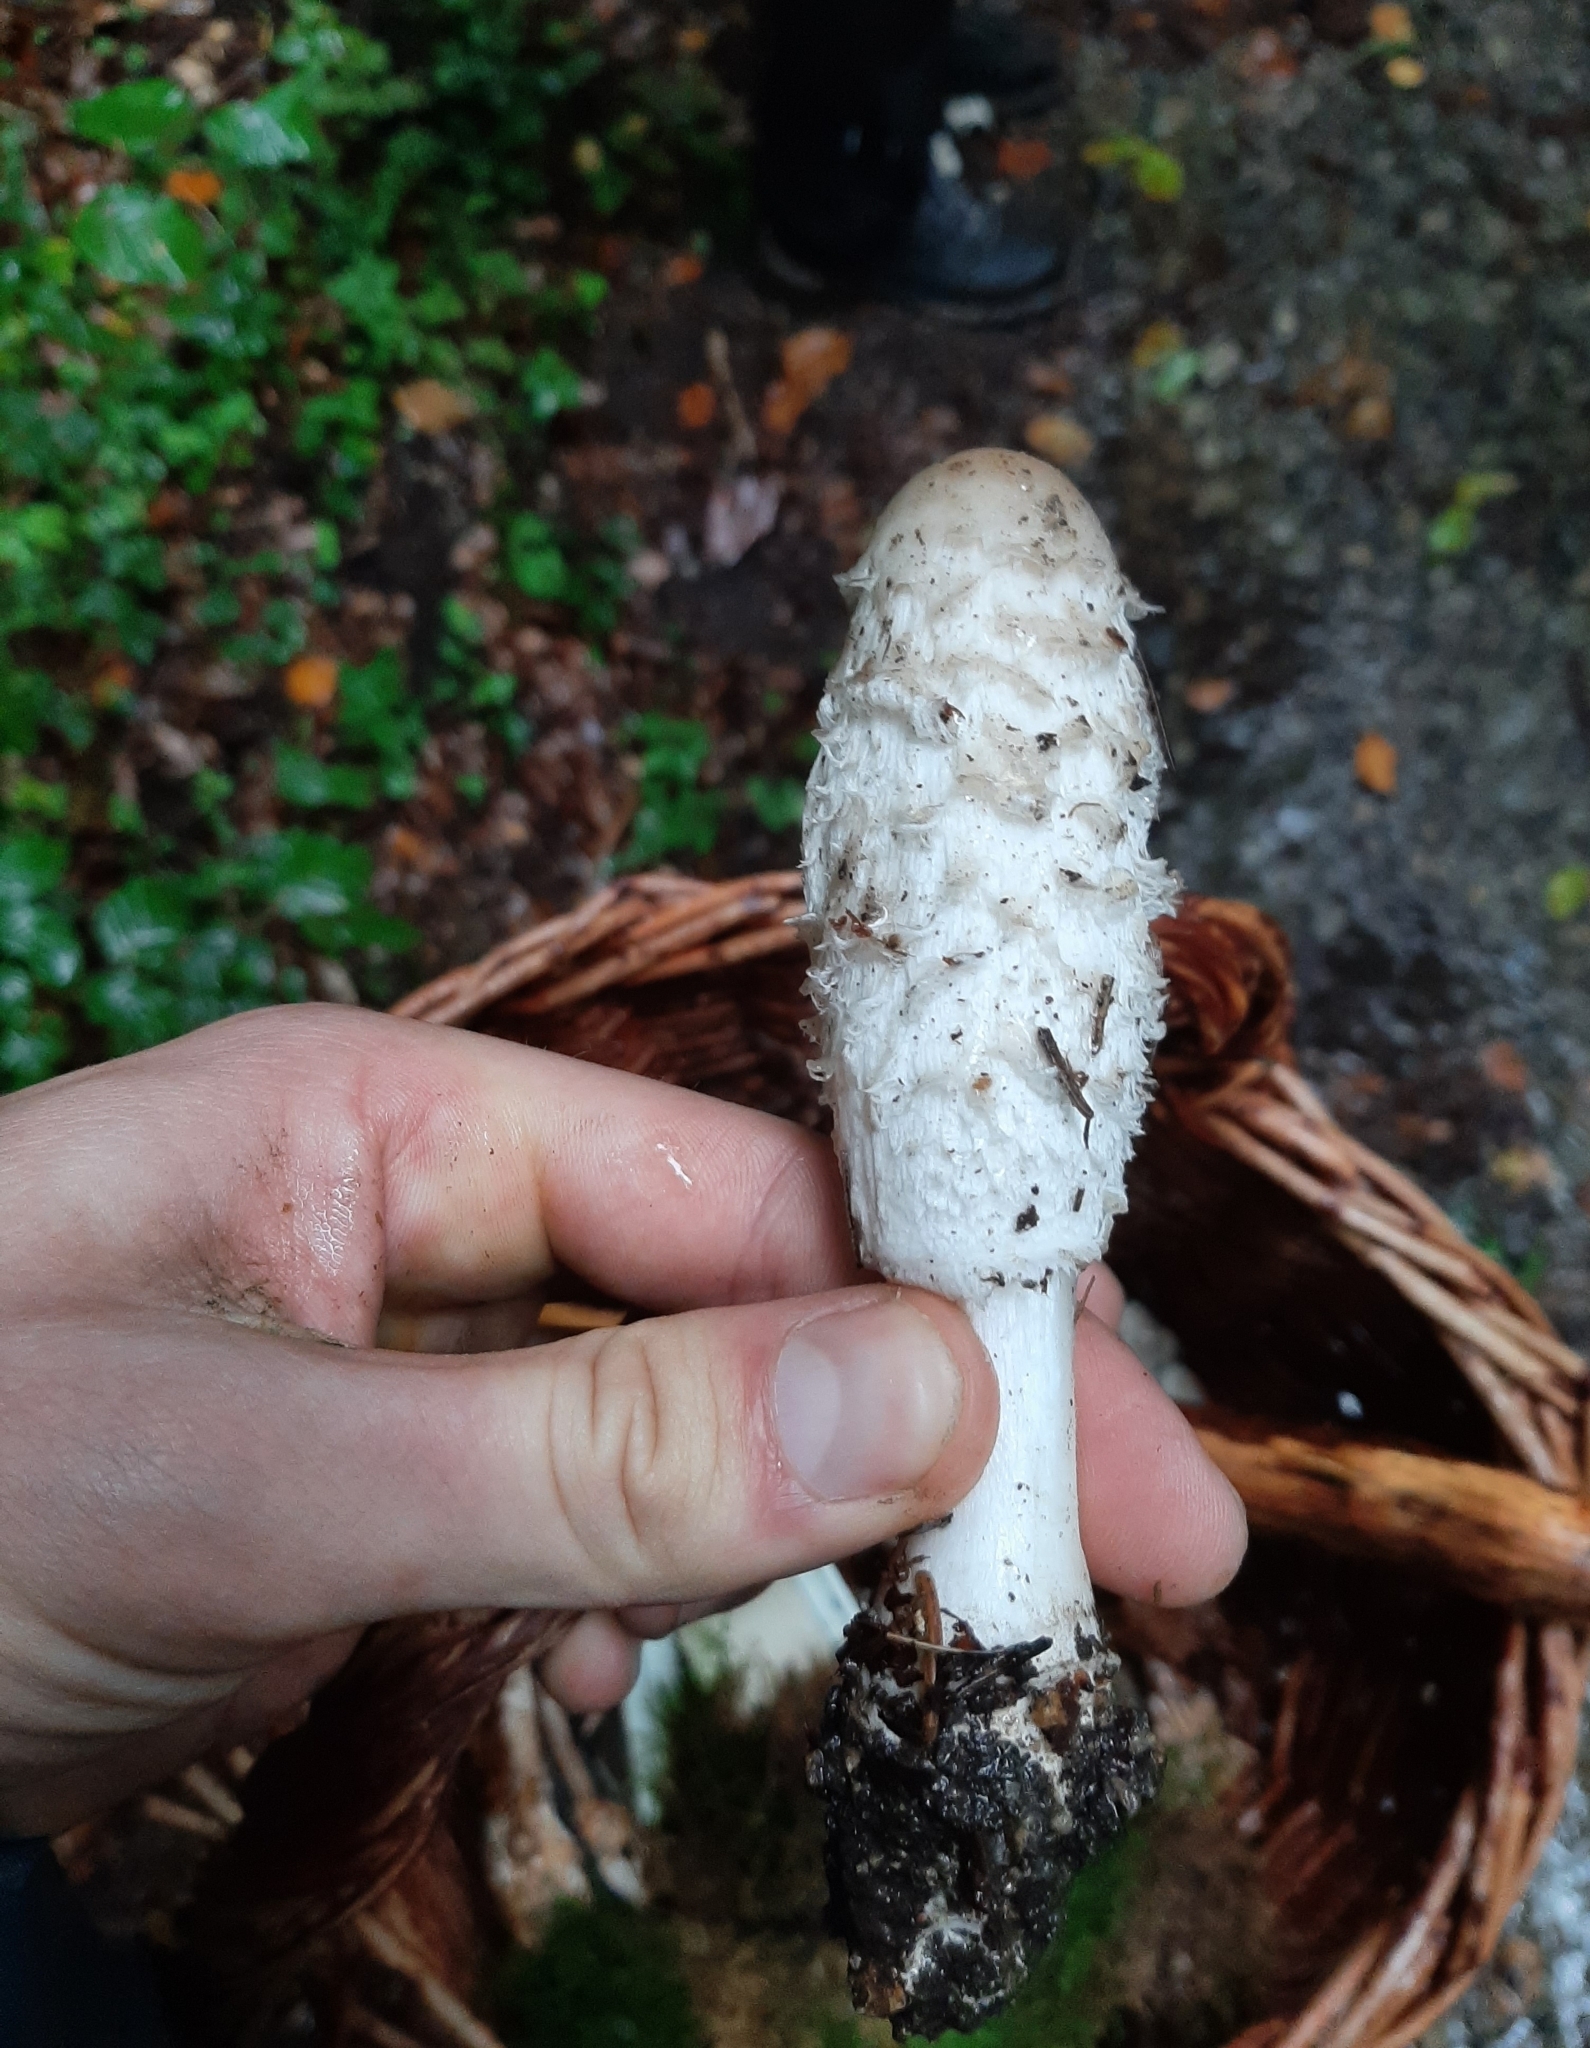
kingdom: Fungi
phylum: Basidiomycota
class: Agaricomycetes
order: Agaricales
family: Agaricaceae
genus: Coprinus
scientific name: Coprinus comatus
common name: Lawyer's wig
